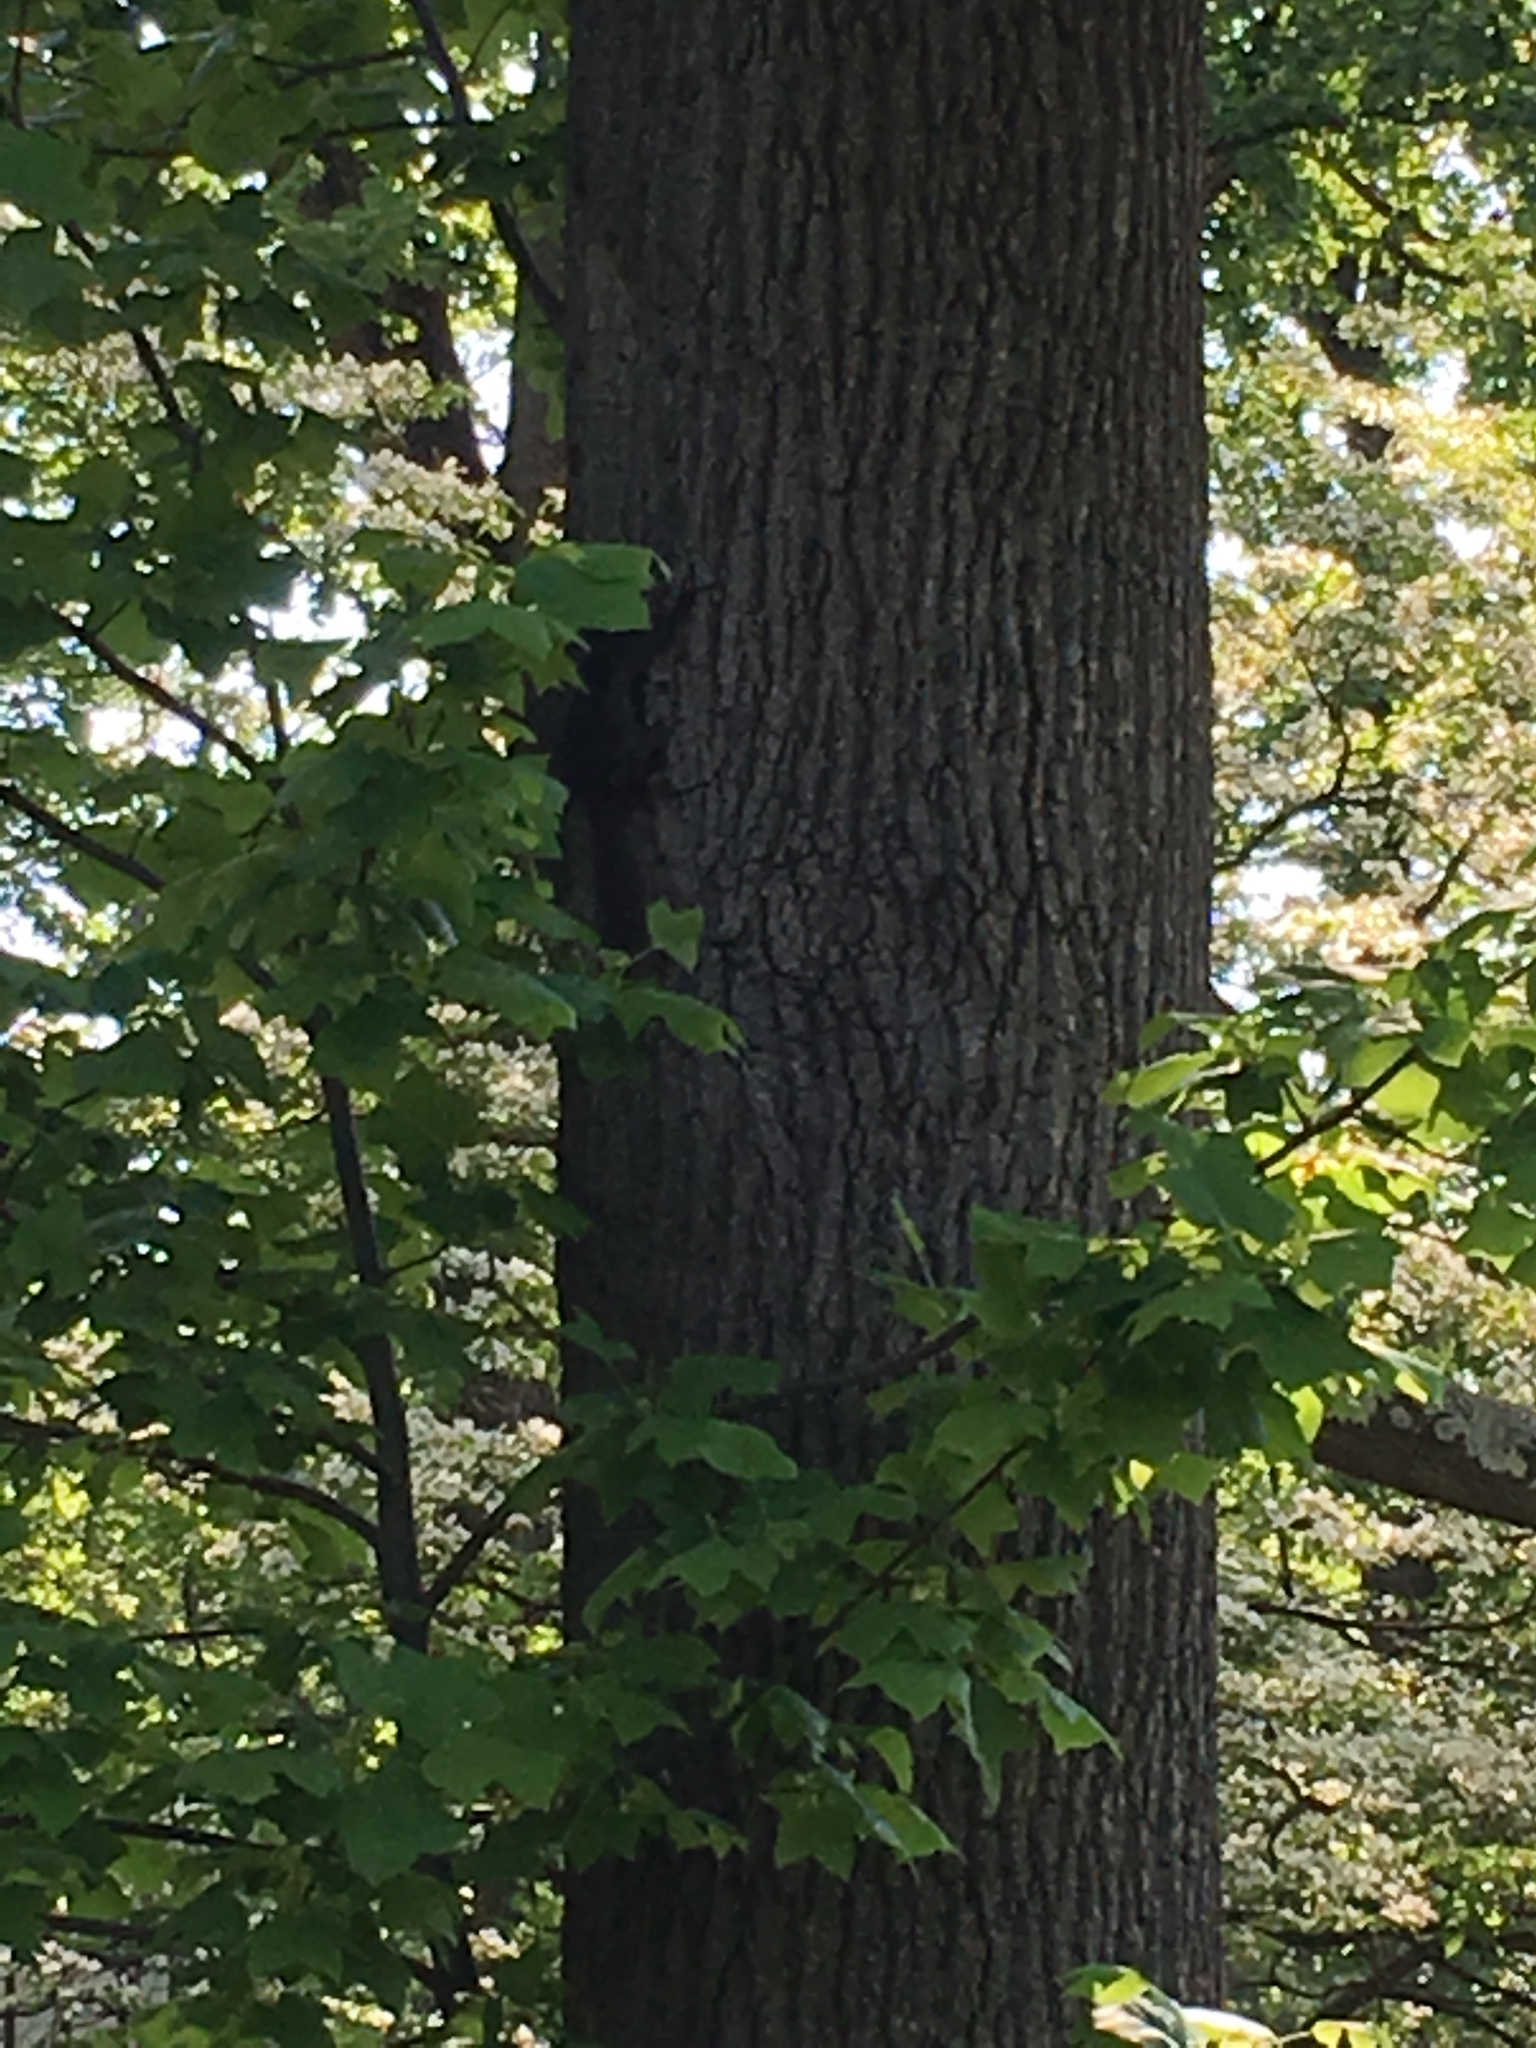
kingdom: Animalia
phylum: Chordata
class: Mammalia
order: Rodentia
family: Sciuridae
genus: Sciurus
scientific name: Sciurus carolinensis
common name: Eastern gray squirrel
